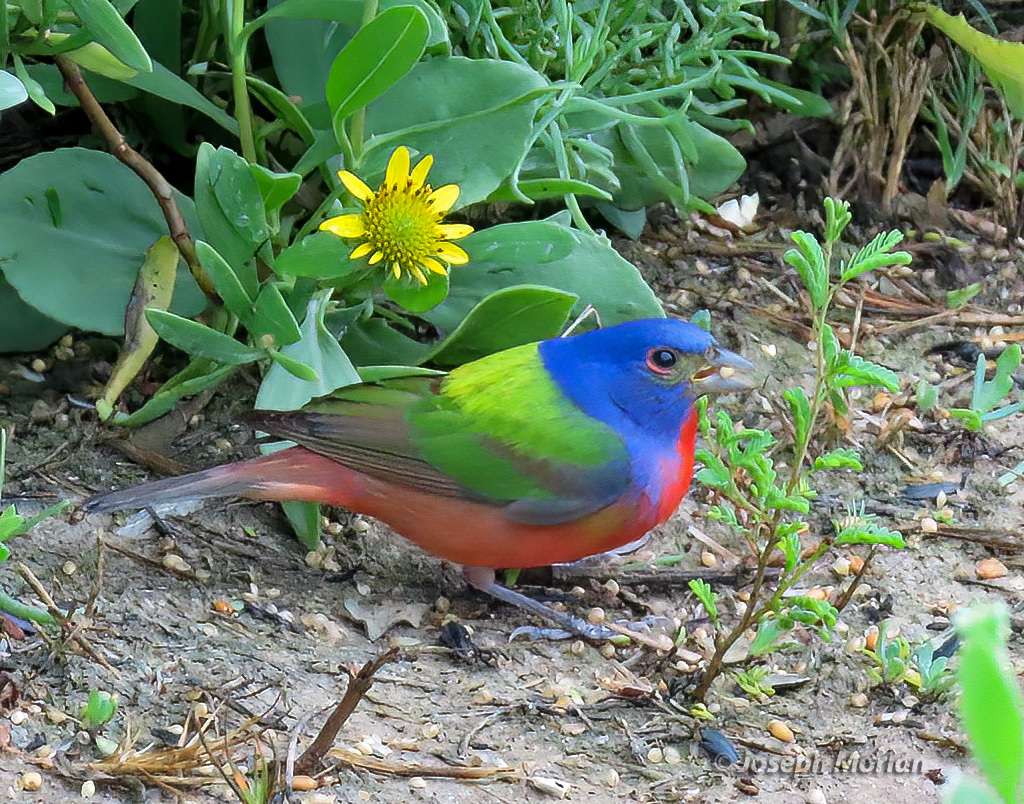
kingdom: Animalia
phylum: Chordata
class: Aves
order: Passeriformes
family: Cardinalidae
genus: Passerina
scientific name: Passerina ciris
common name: Painted bunting
